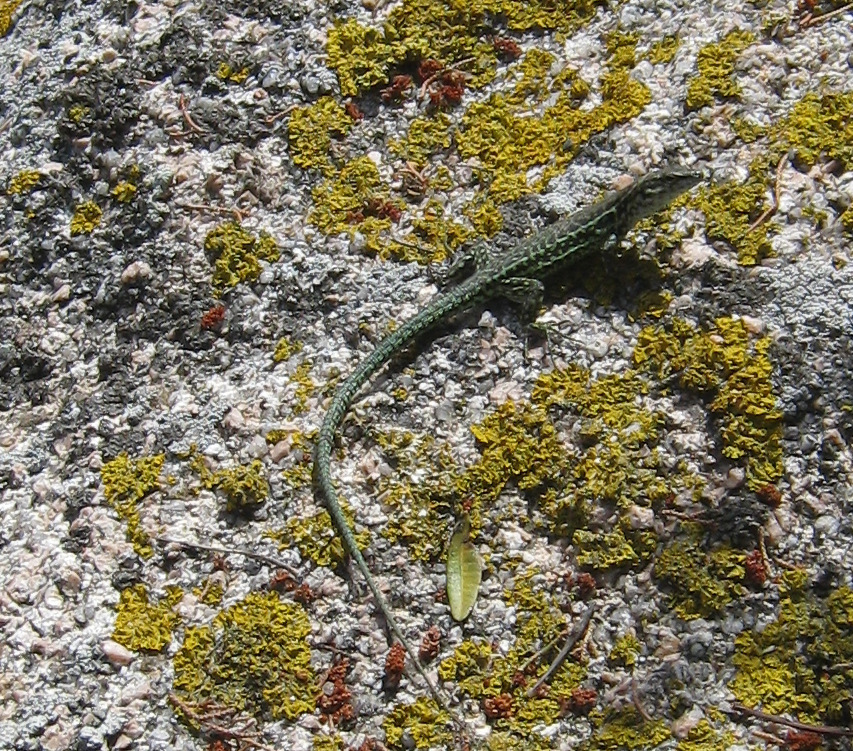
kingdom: Animalia
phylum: Chordata
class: Squamata
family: Lacertidae
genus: Podarcis
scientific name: Podarcis tiliguerta
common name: Tyrrhenian wall lizard
